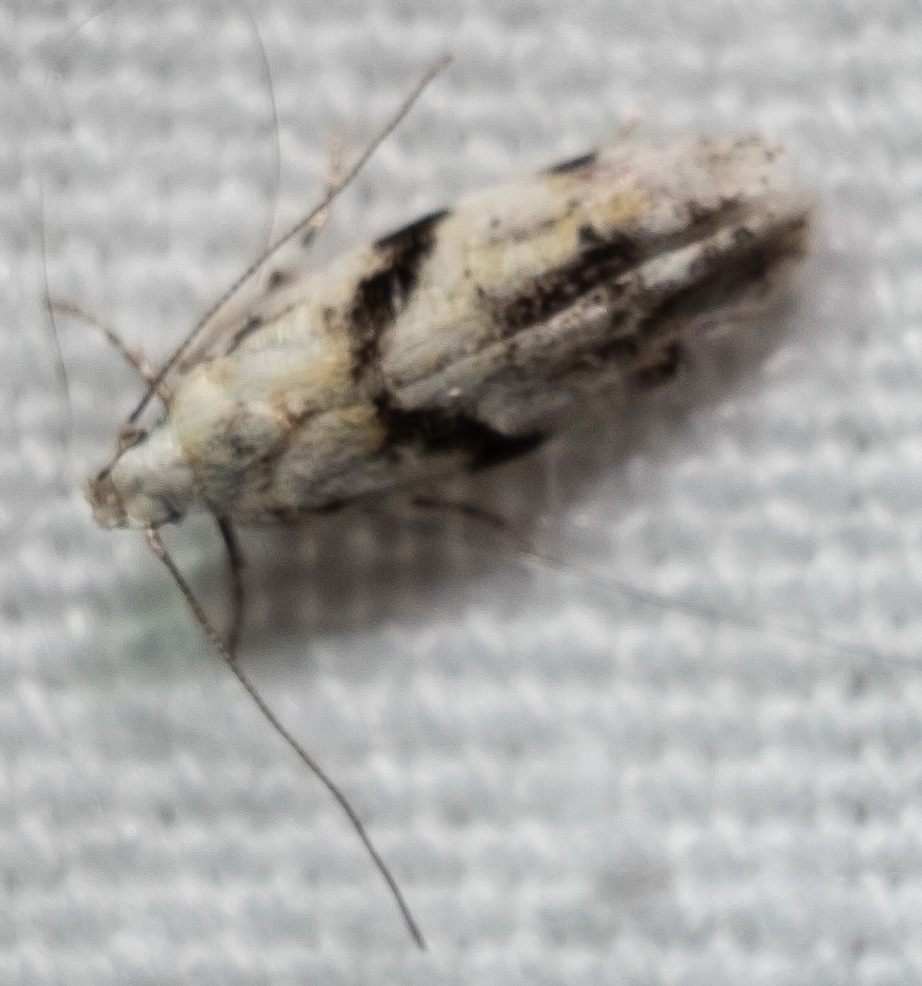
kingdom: Animalia
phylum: Arthropoda
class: Insecta
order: Lepidoptera
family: Gelechiidae
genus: Arogalea
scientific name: Arogalea cristifasciella
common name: White stripe-backed moth
